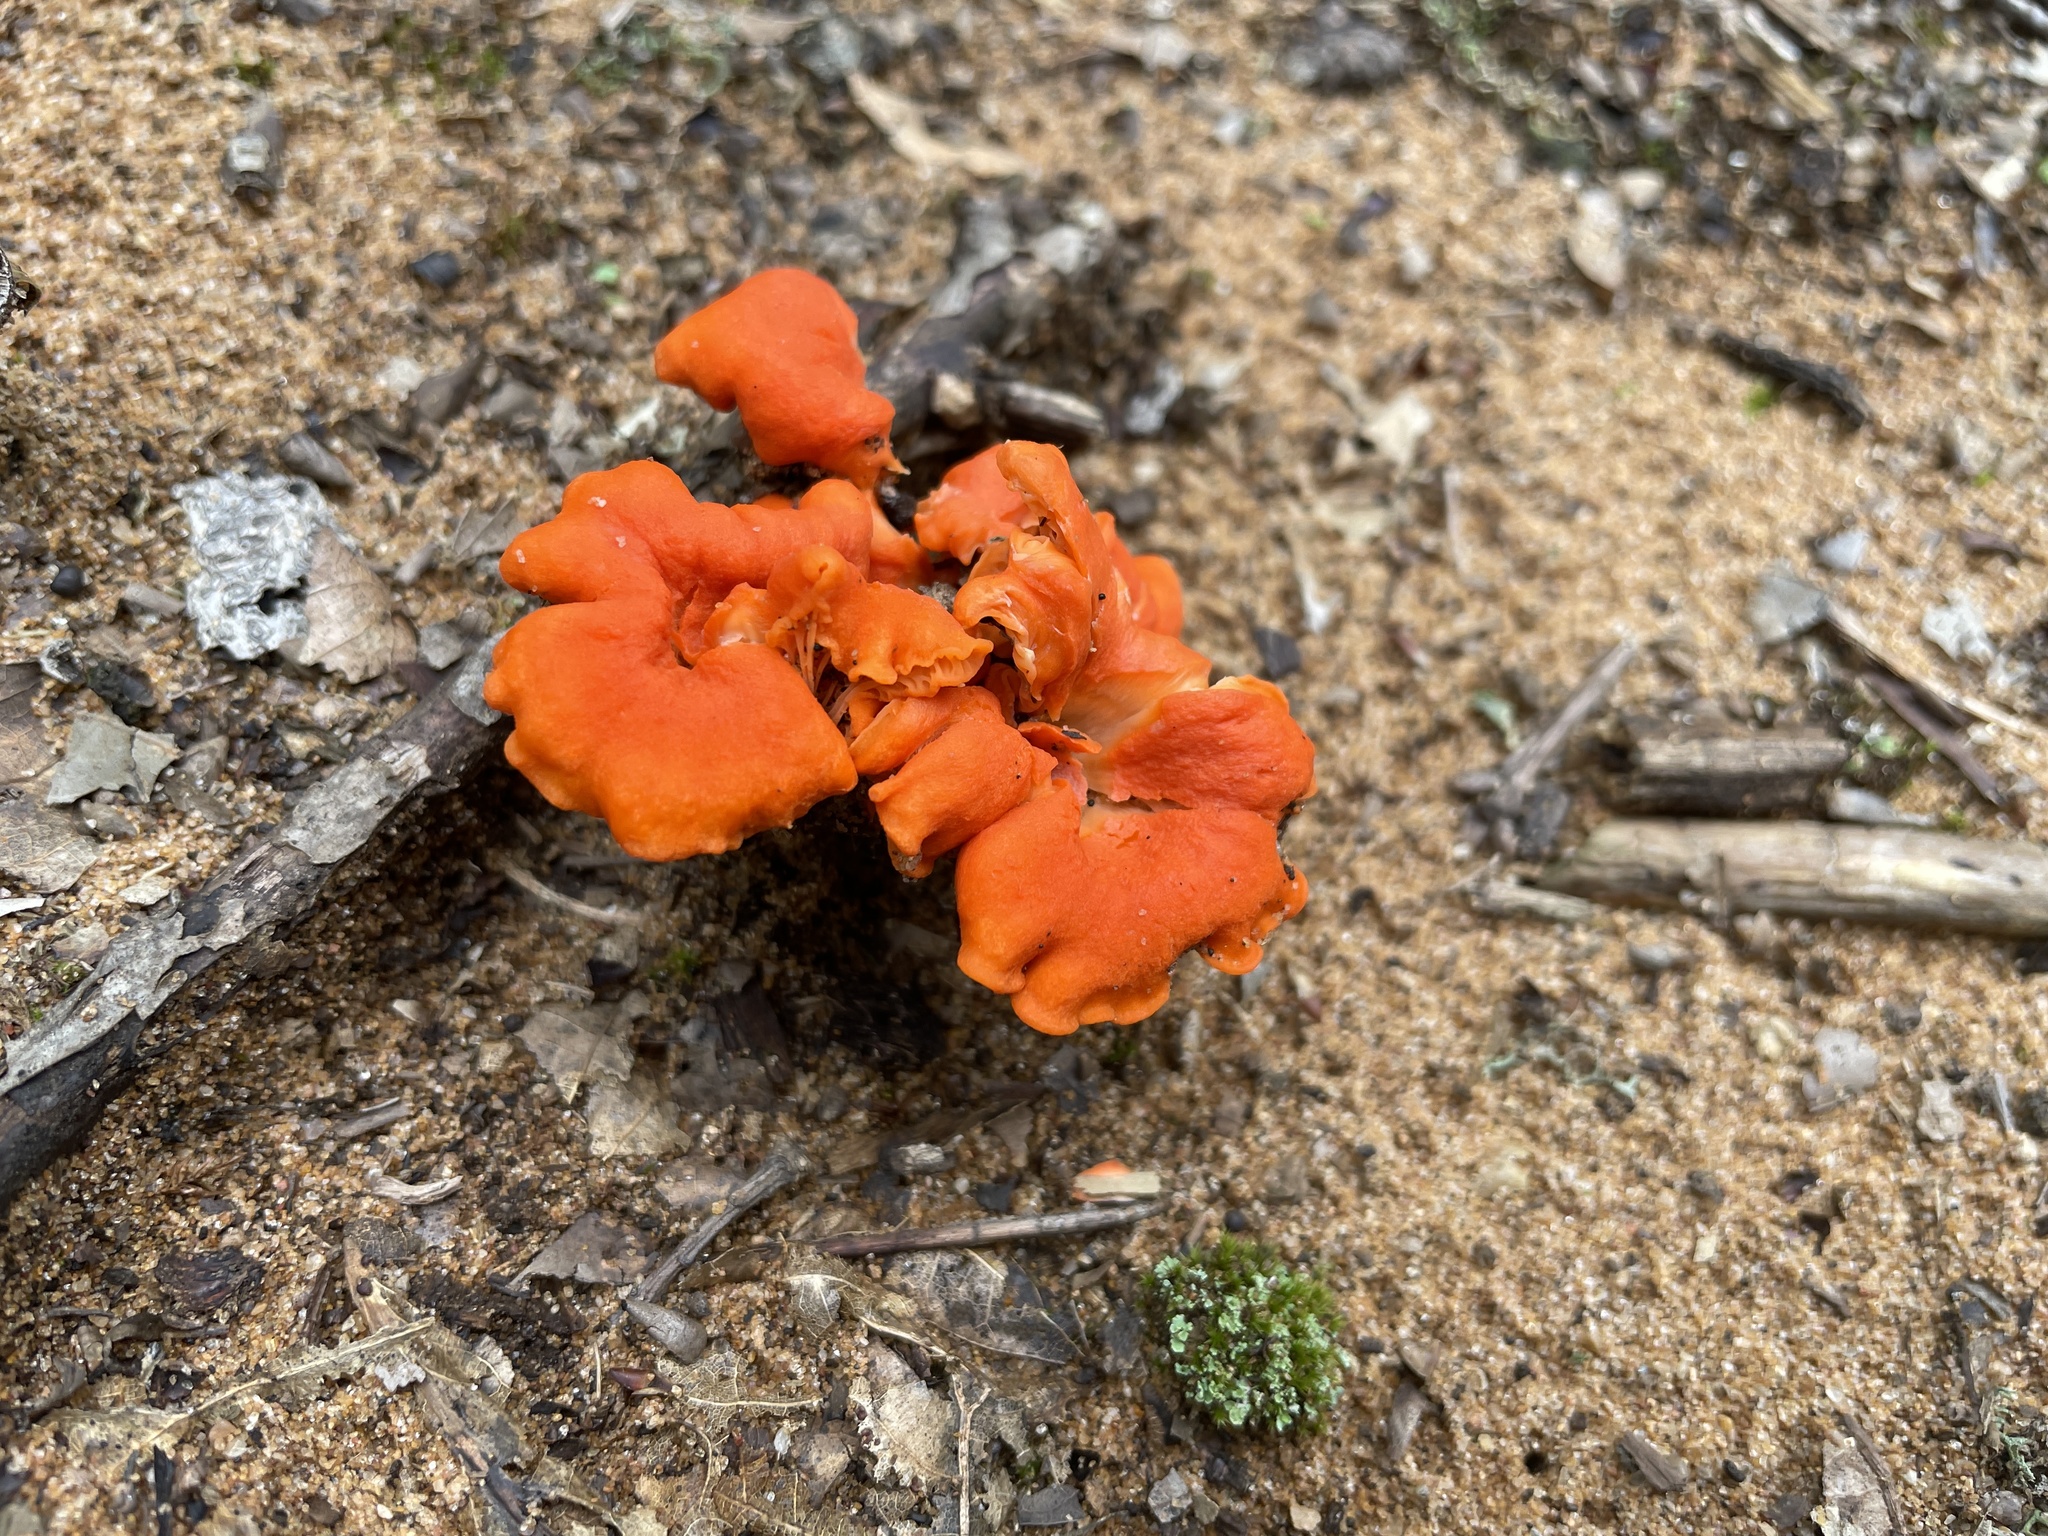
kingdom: Fungi
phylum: Basidiomycota
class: Agaricomycetes
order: Cantharellales
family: Hydnaceae
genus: Cantharellus
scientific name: Cantharellus cinnabarinus
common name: Cinnabar chanterelle
